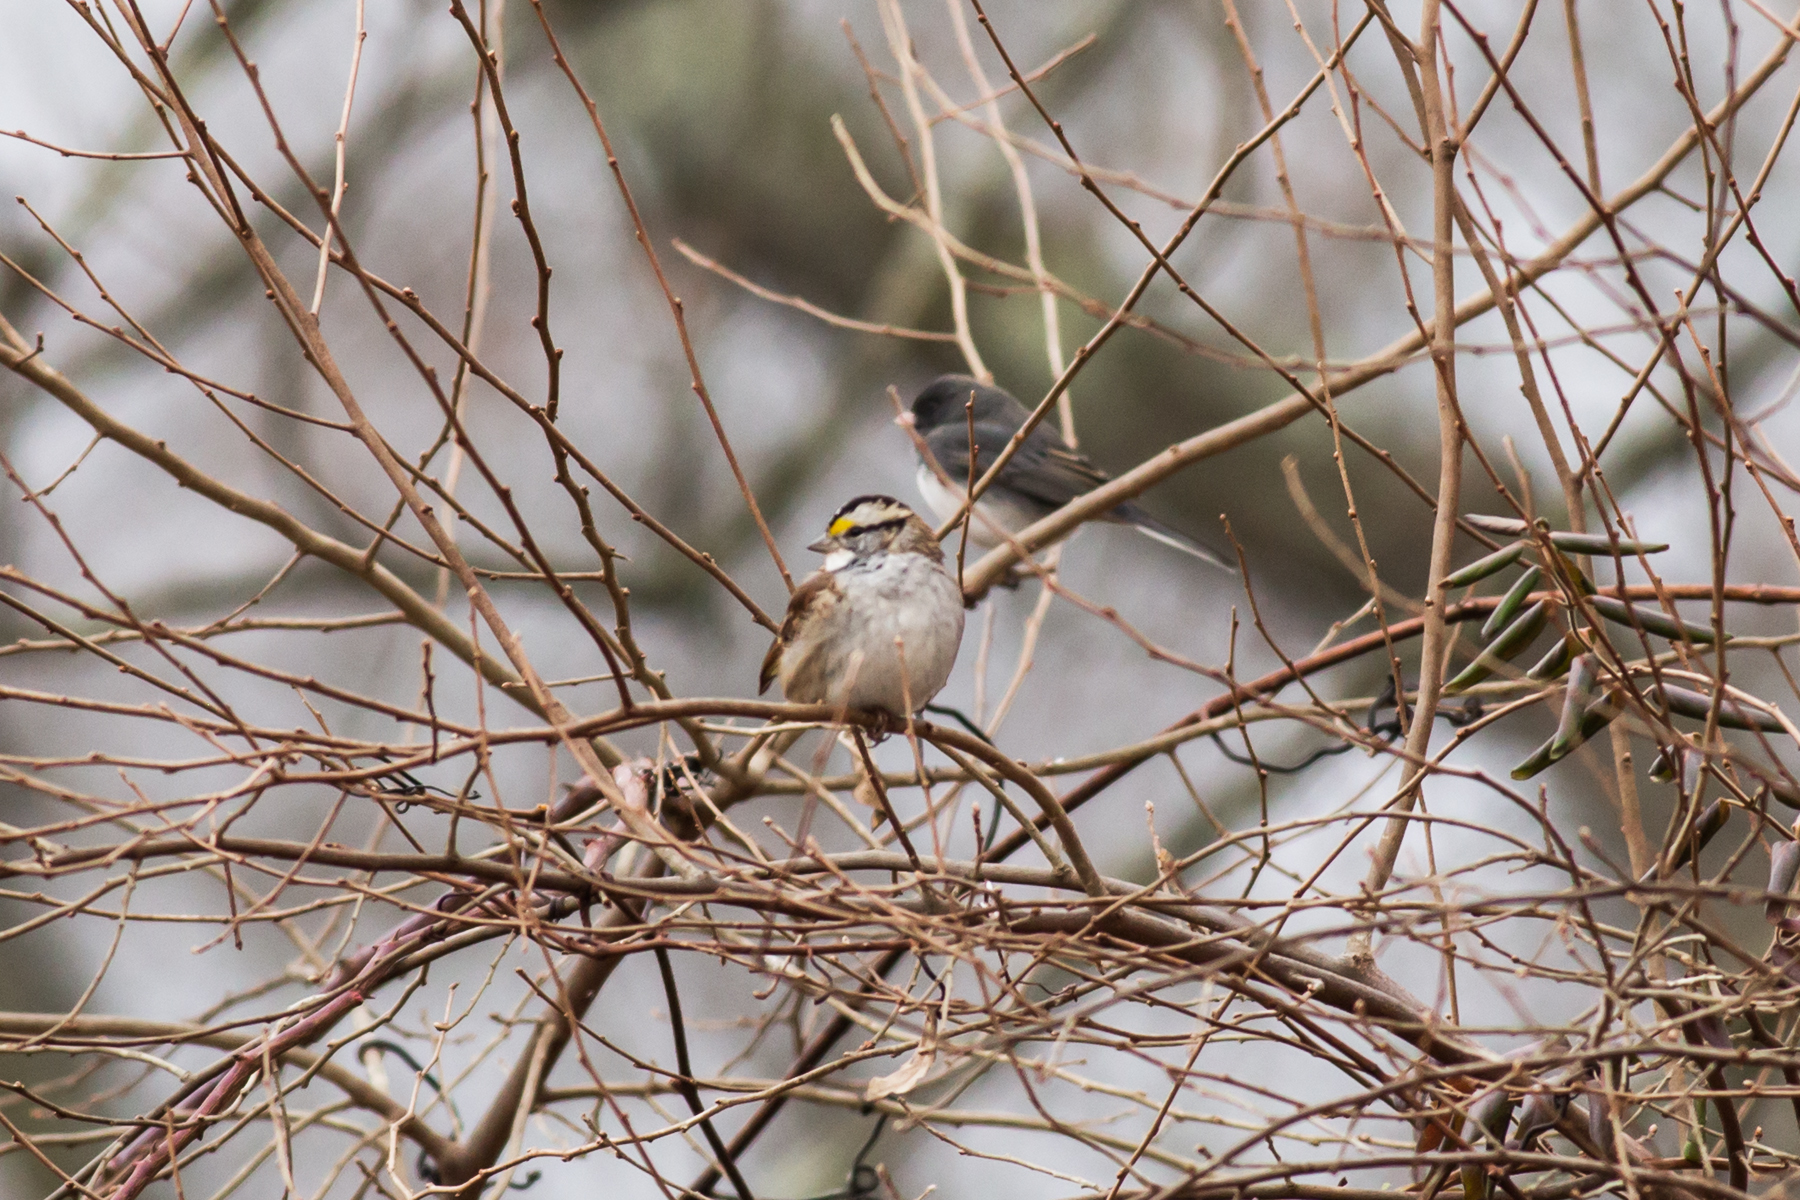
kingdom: Animalia
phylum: Chordata
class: Aves
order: Passeriformes
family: Passerellidae
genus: Zonotrichia
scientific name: Zonotrichia albicollis
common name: White-throated sparrow
